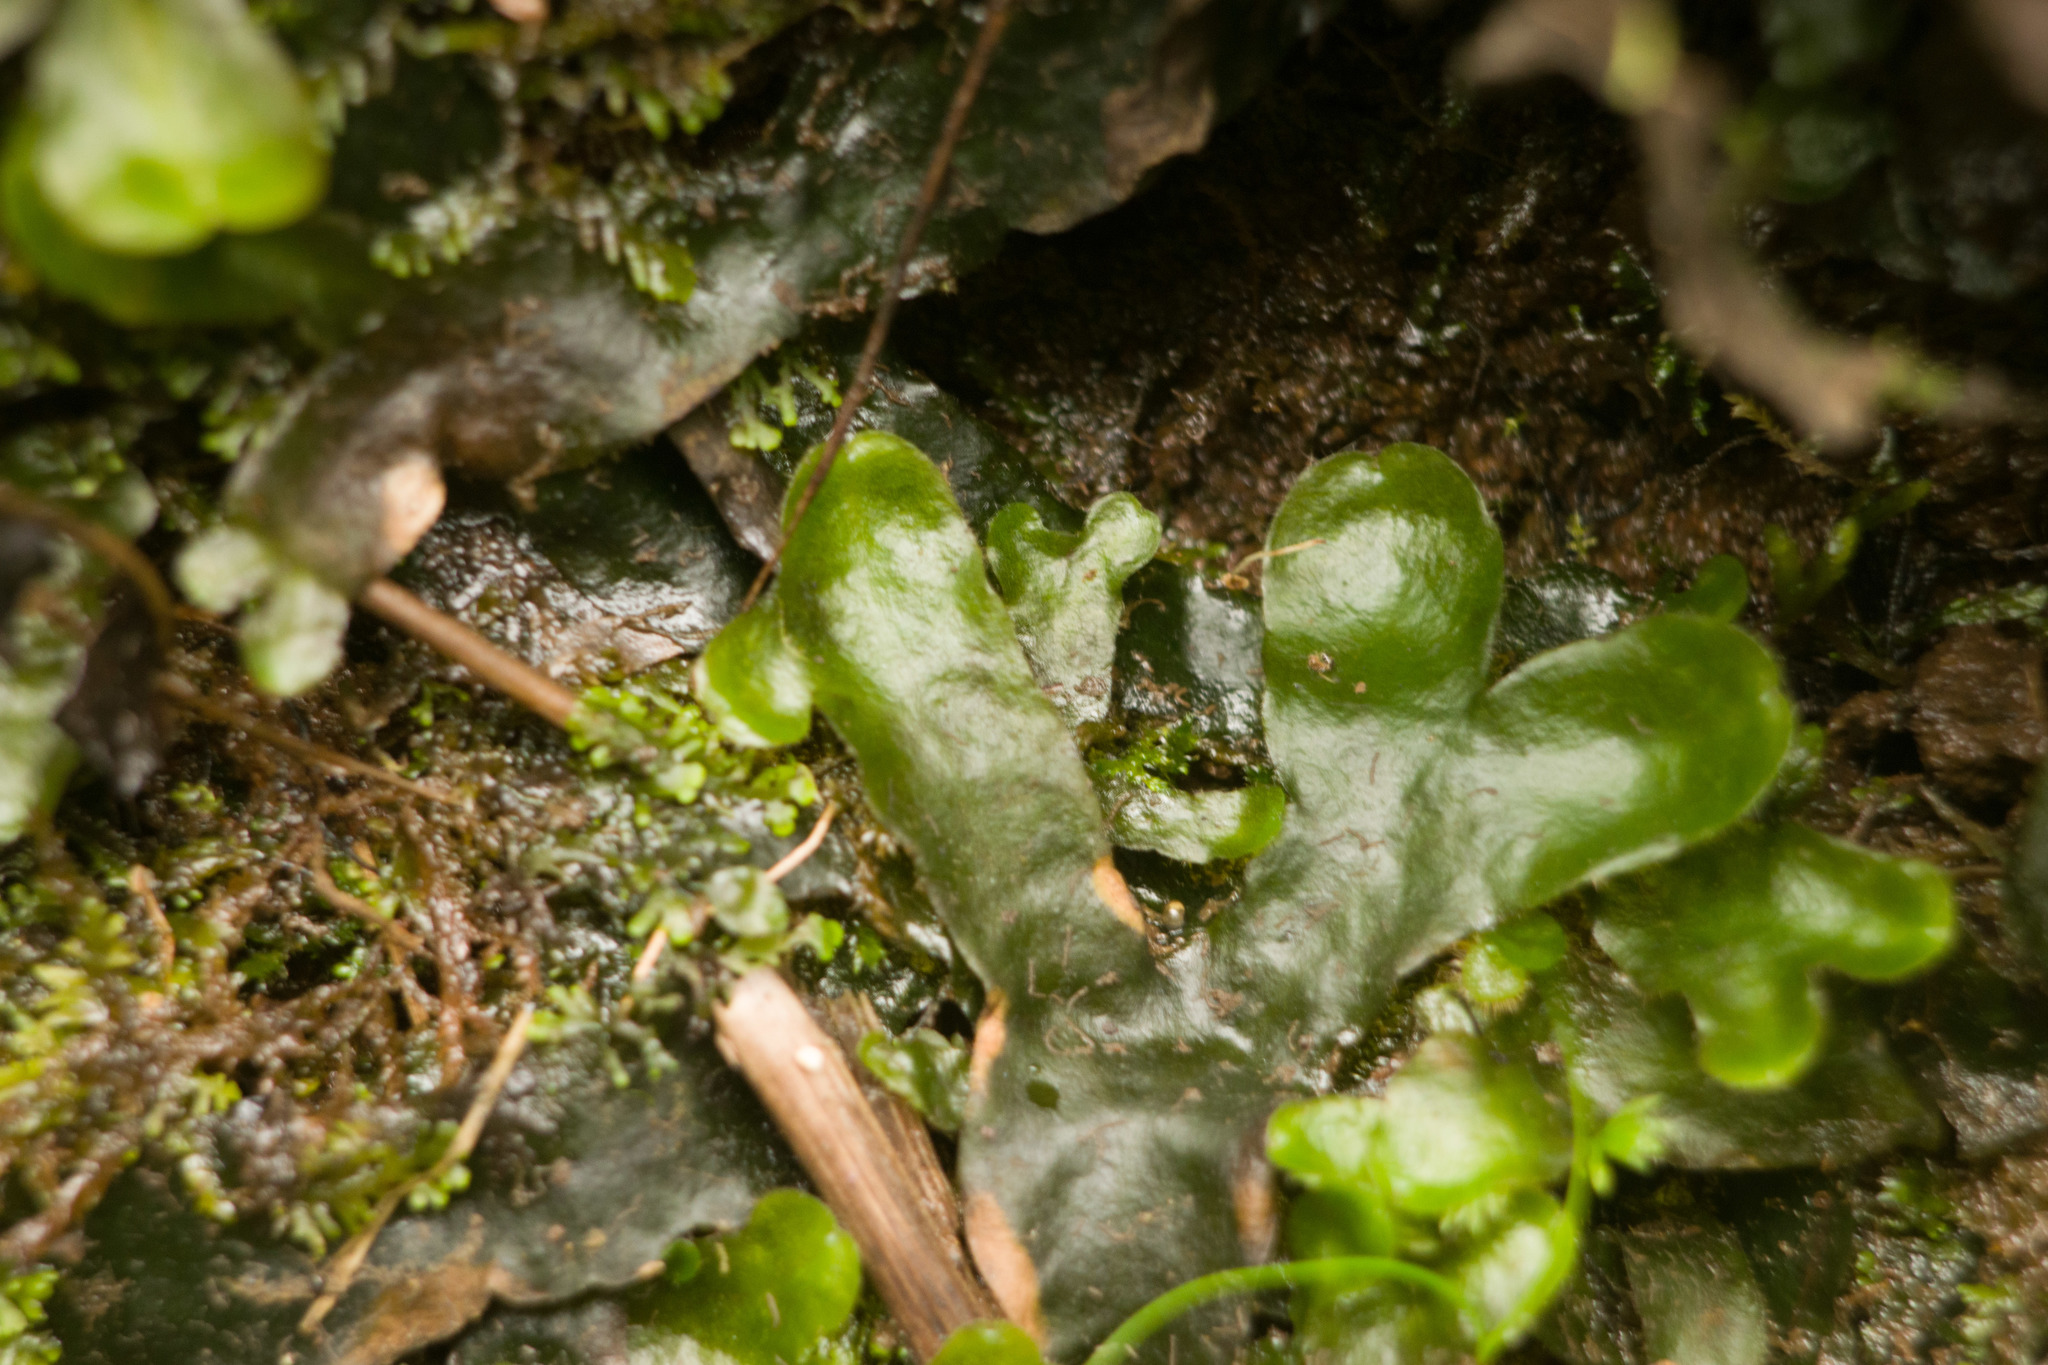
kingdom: Plantae
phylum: Marchantiophyta
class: Marchantiopsida
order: Marchantiales
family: Dumortieraceae
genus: Dumortiera
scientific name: Dumortiera hirsuta
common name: Dumortier's liverwort
